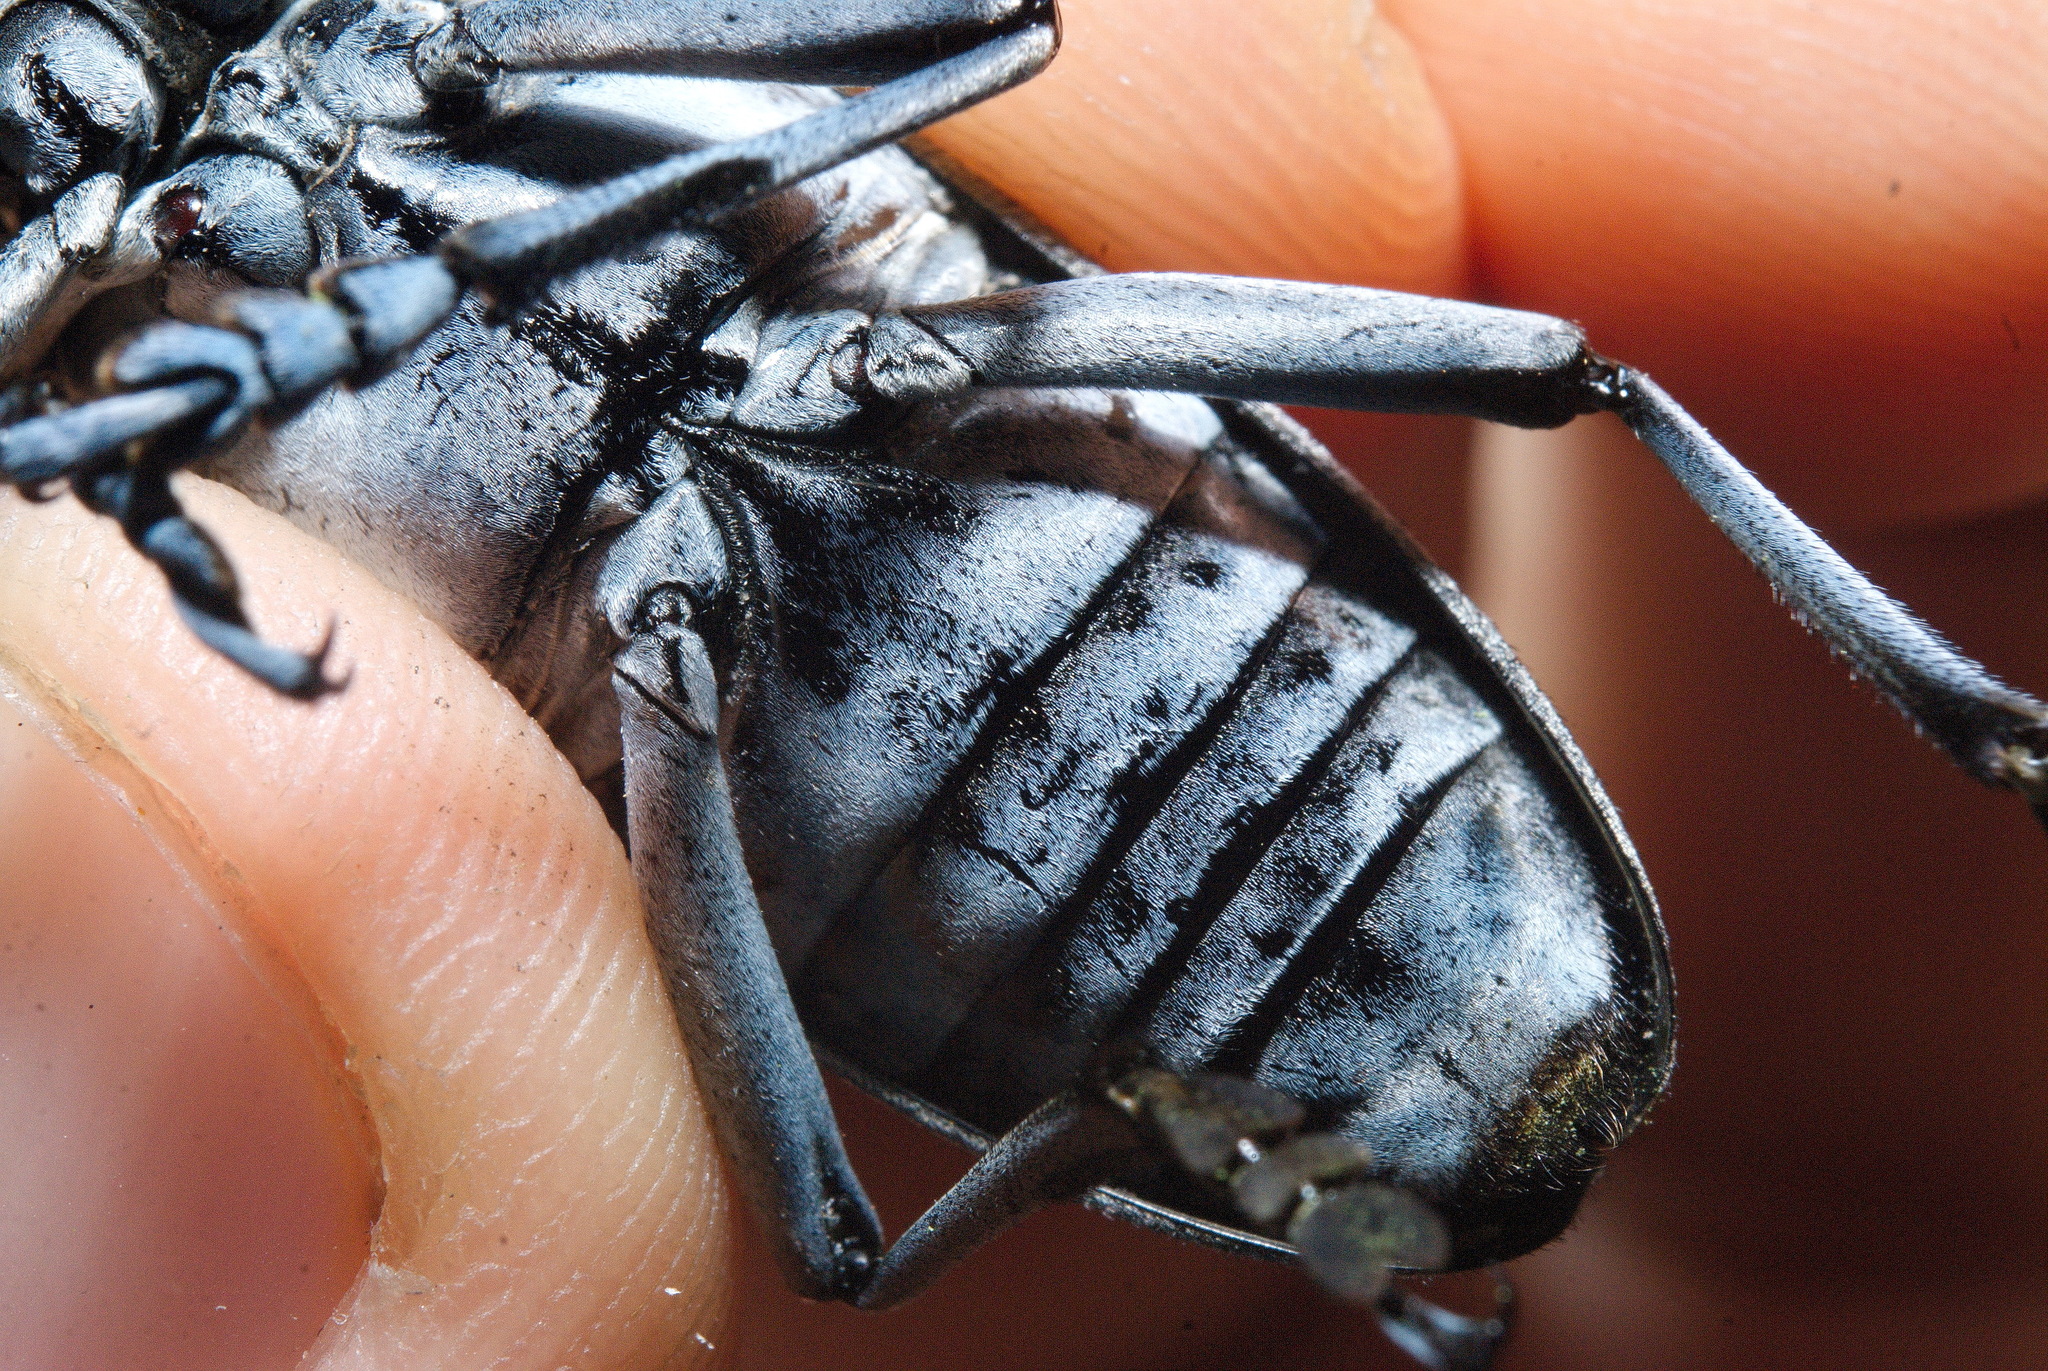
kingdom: Animalia
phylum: Arthropoda
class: Insecta
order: Coleoptera
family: Cerambycidae
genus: Anoplophora
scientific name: Anoplophora macularia
